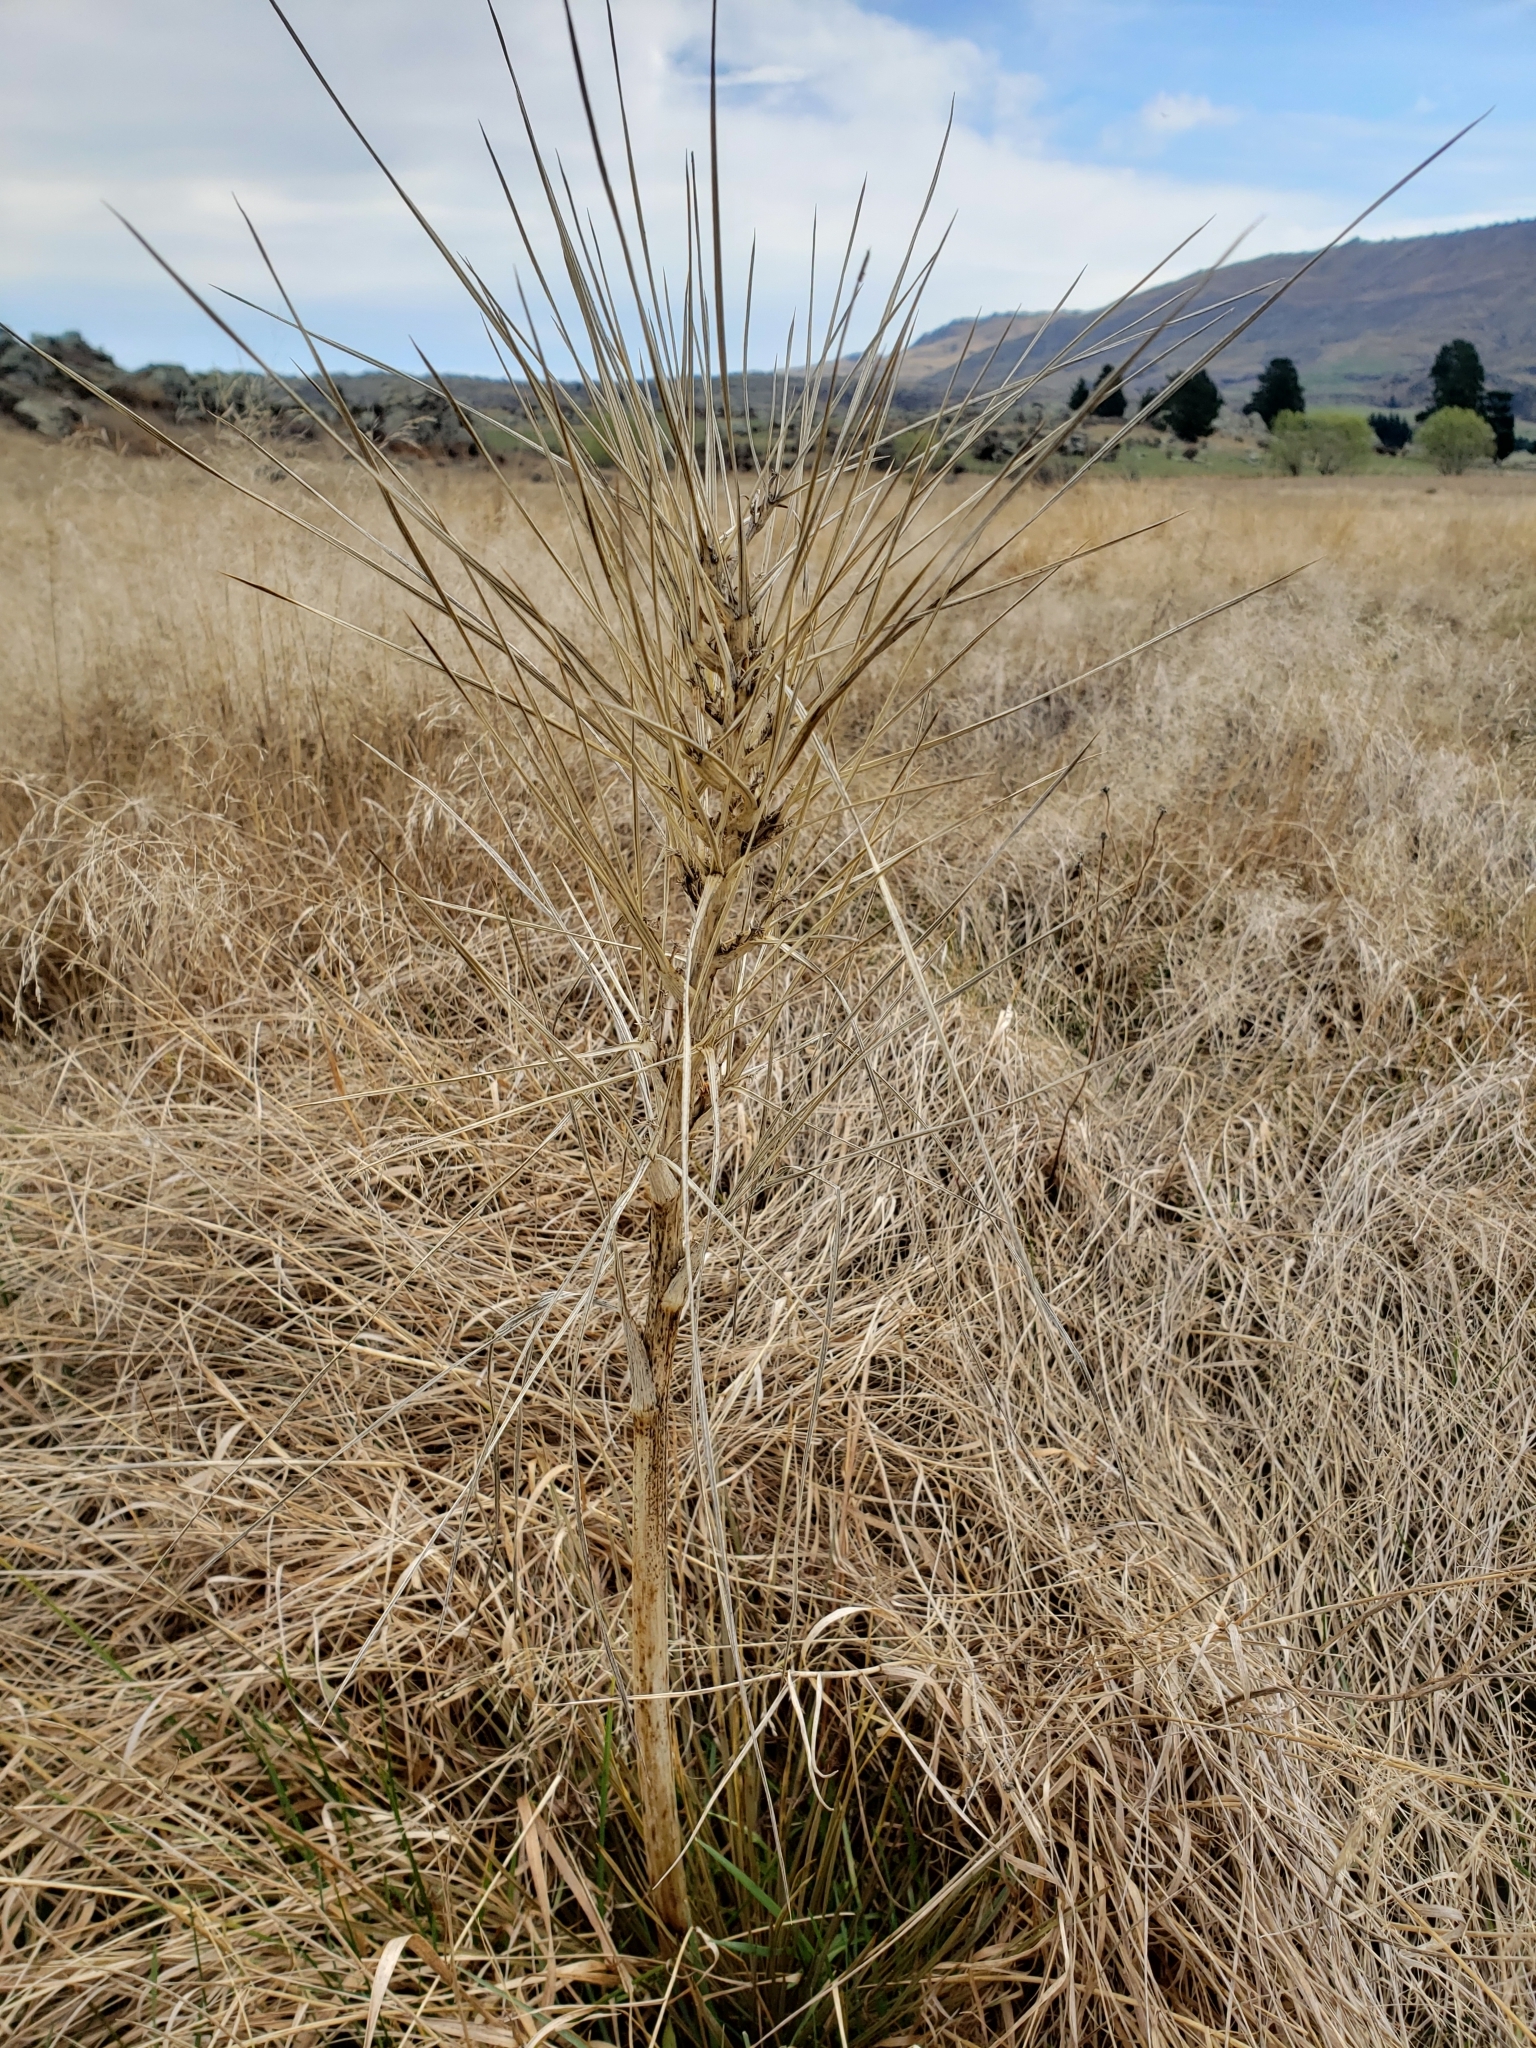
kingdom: Plantae
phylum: Tracheophyta
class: Magnoliopsida
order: Apiales
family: Apiaceae
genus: Aciphylla
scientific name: Aciphylla subflabellata
